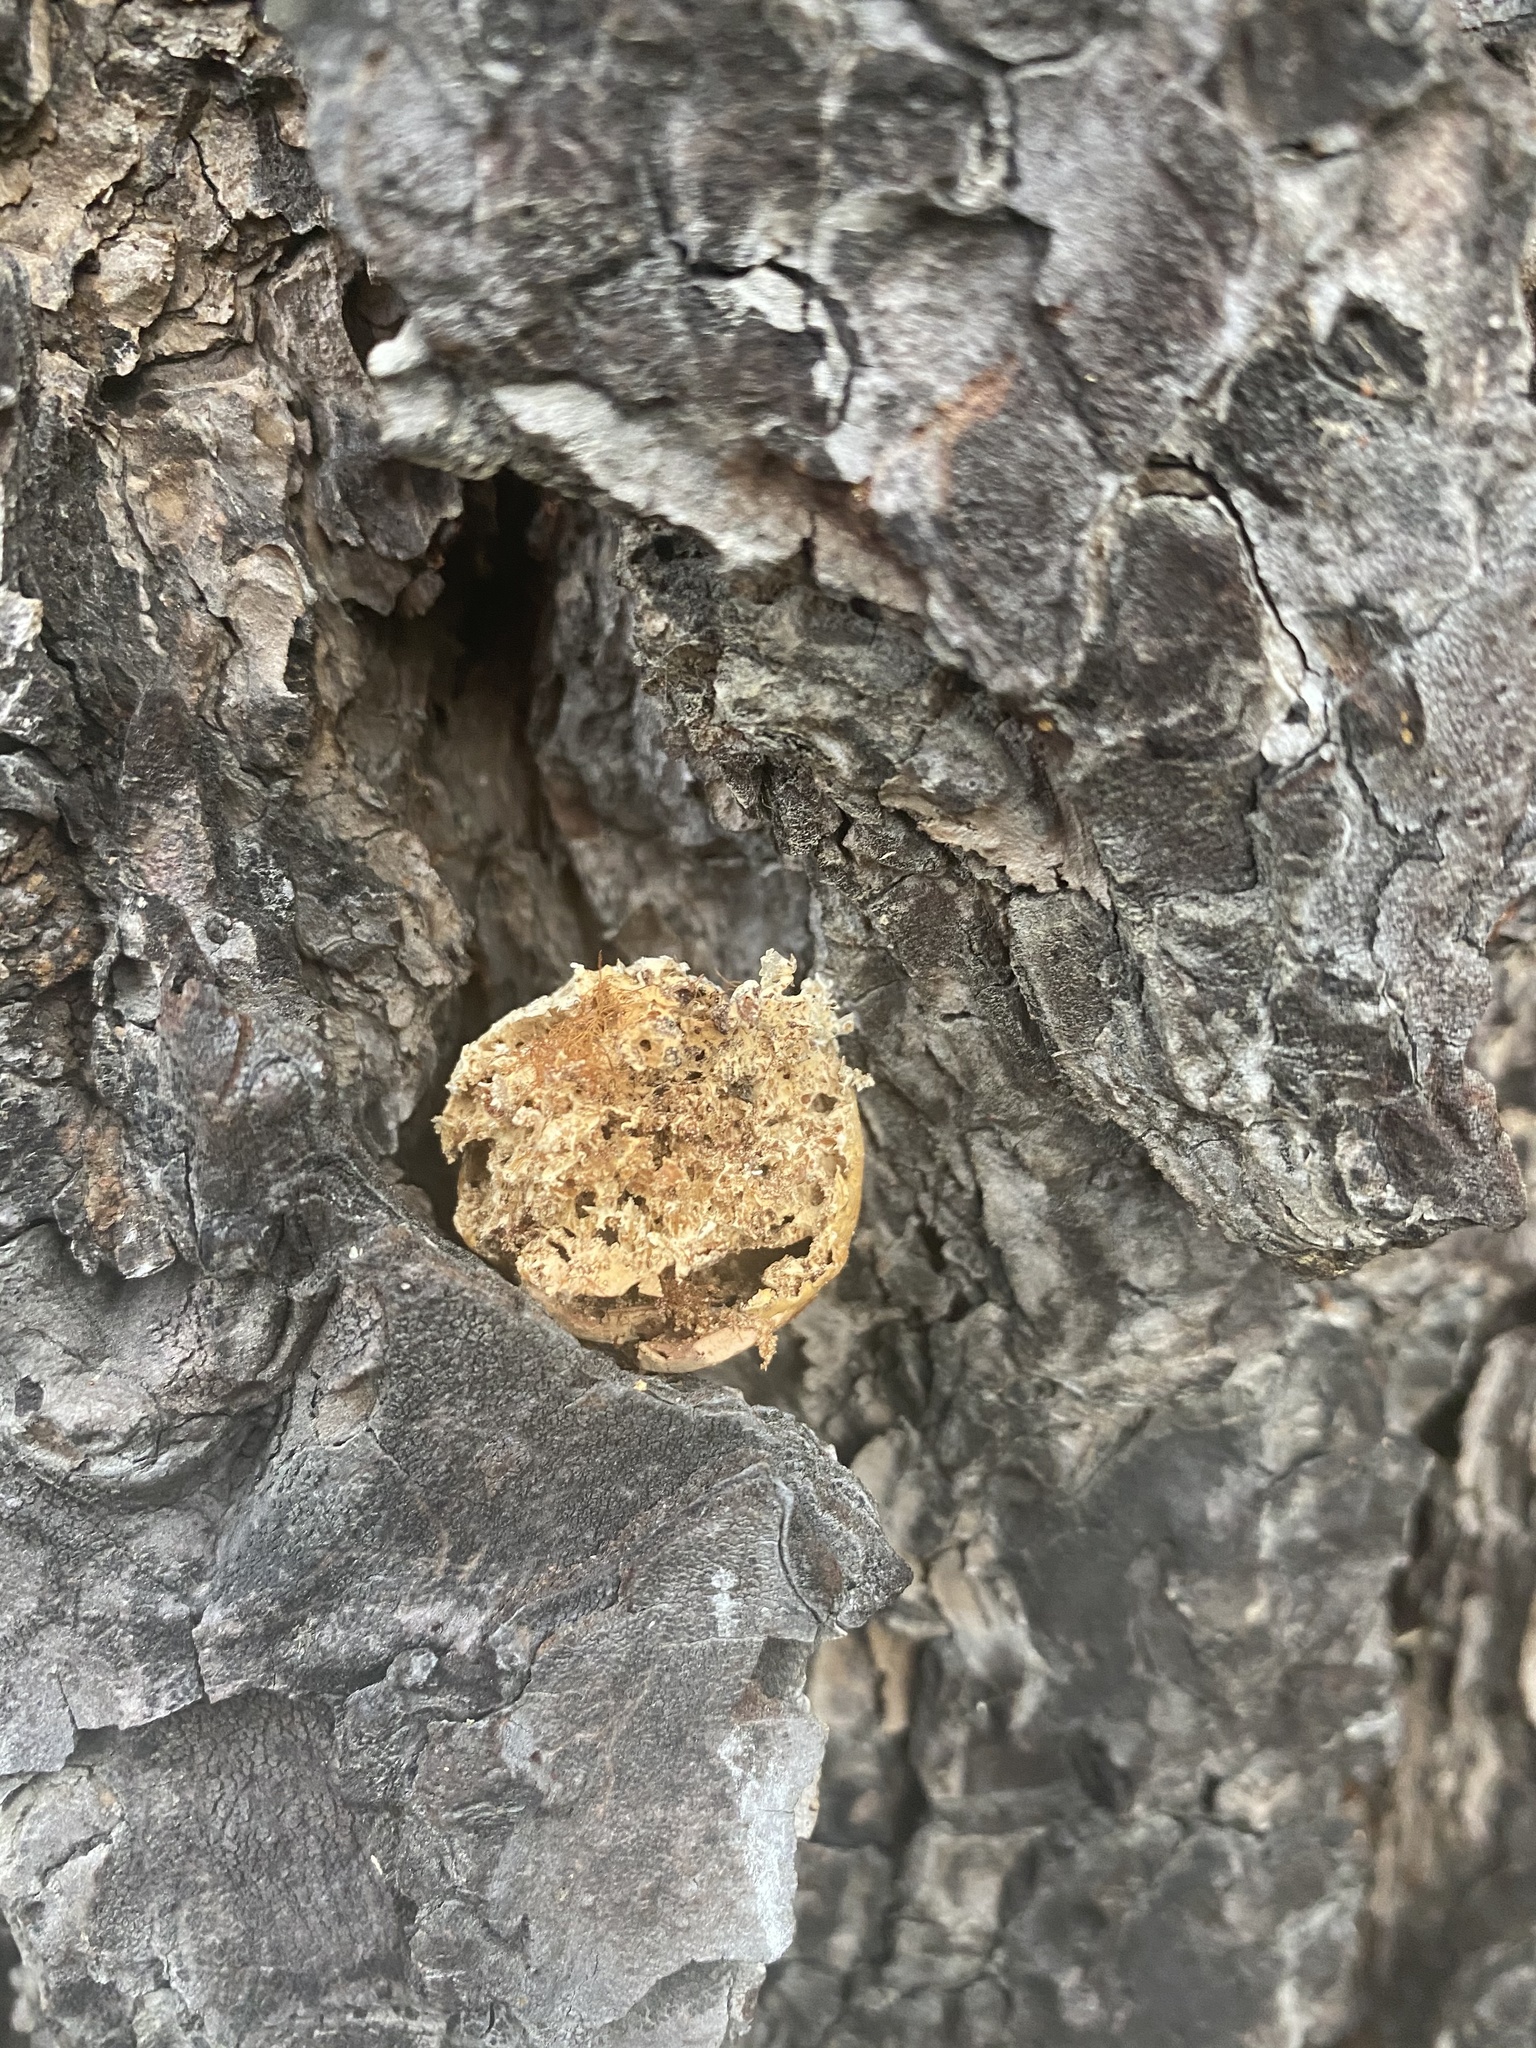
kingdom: Fungi
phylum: Basidiomycota
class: Agaricomycetes
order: Polyporales
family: Polyporaceae
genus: Cryptoporus
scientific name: Cryptoporus volvatus
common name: Veiled polypore
